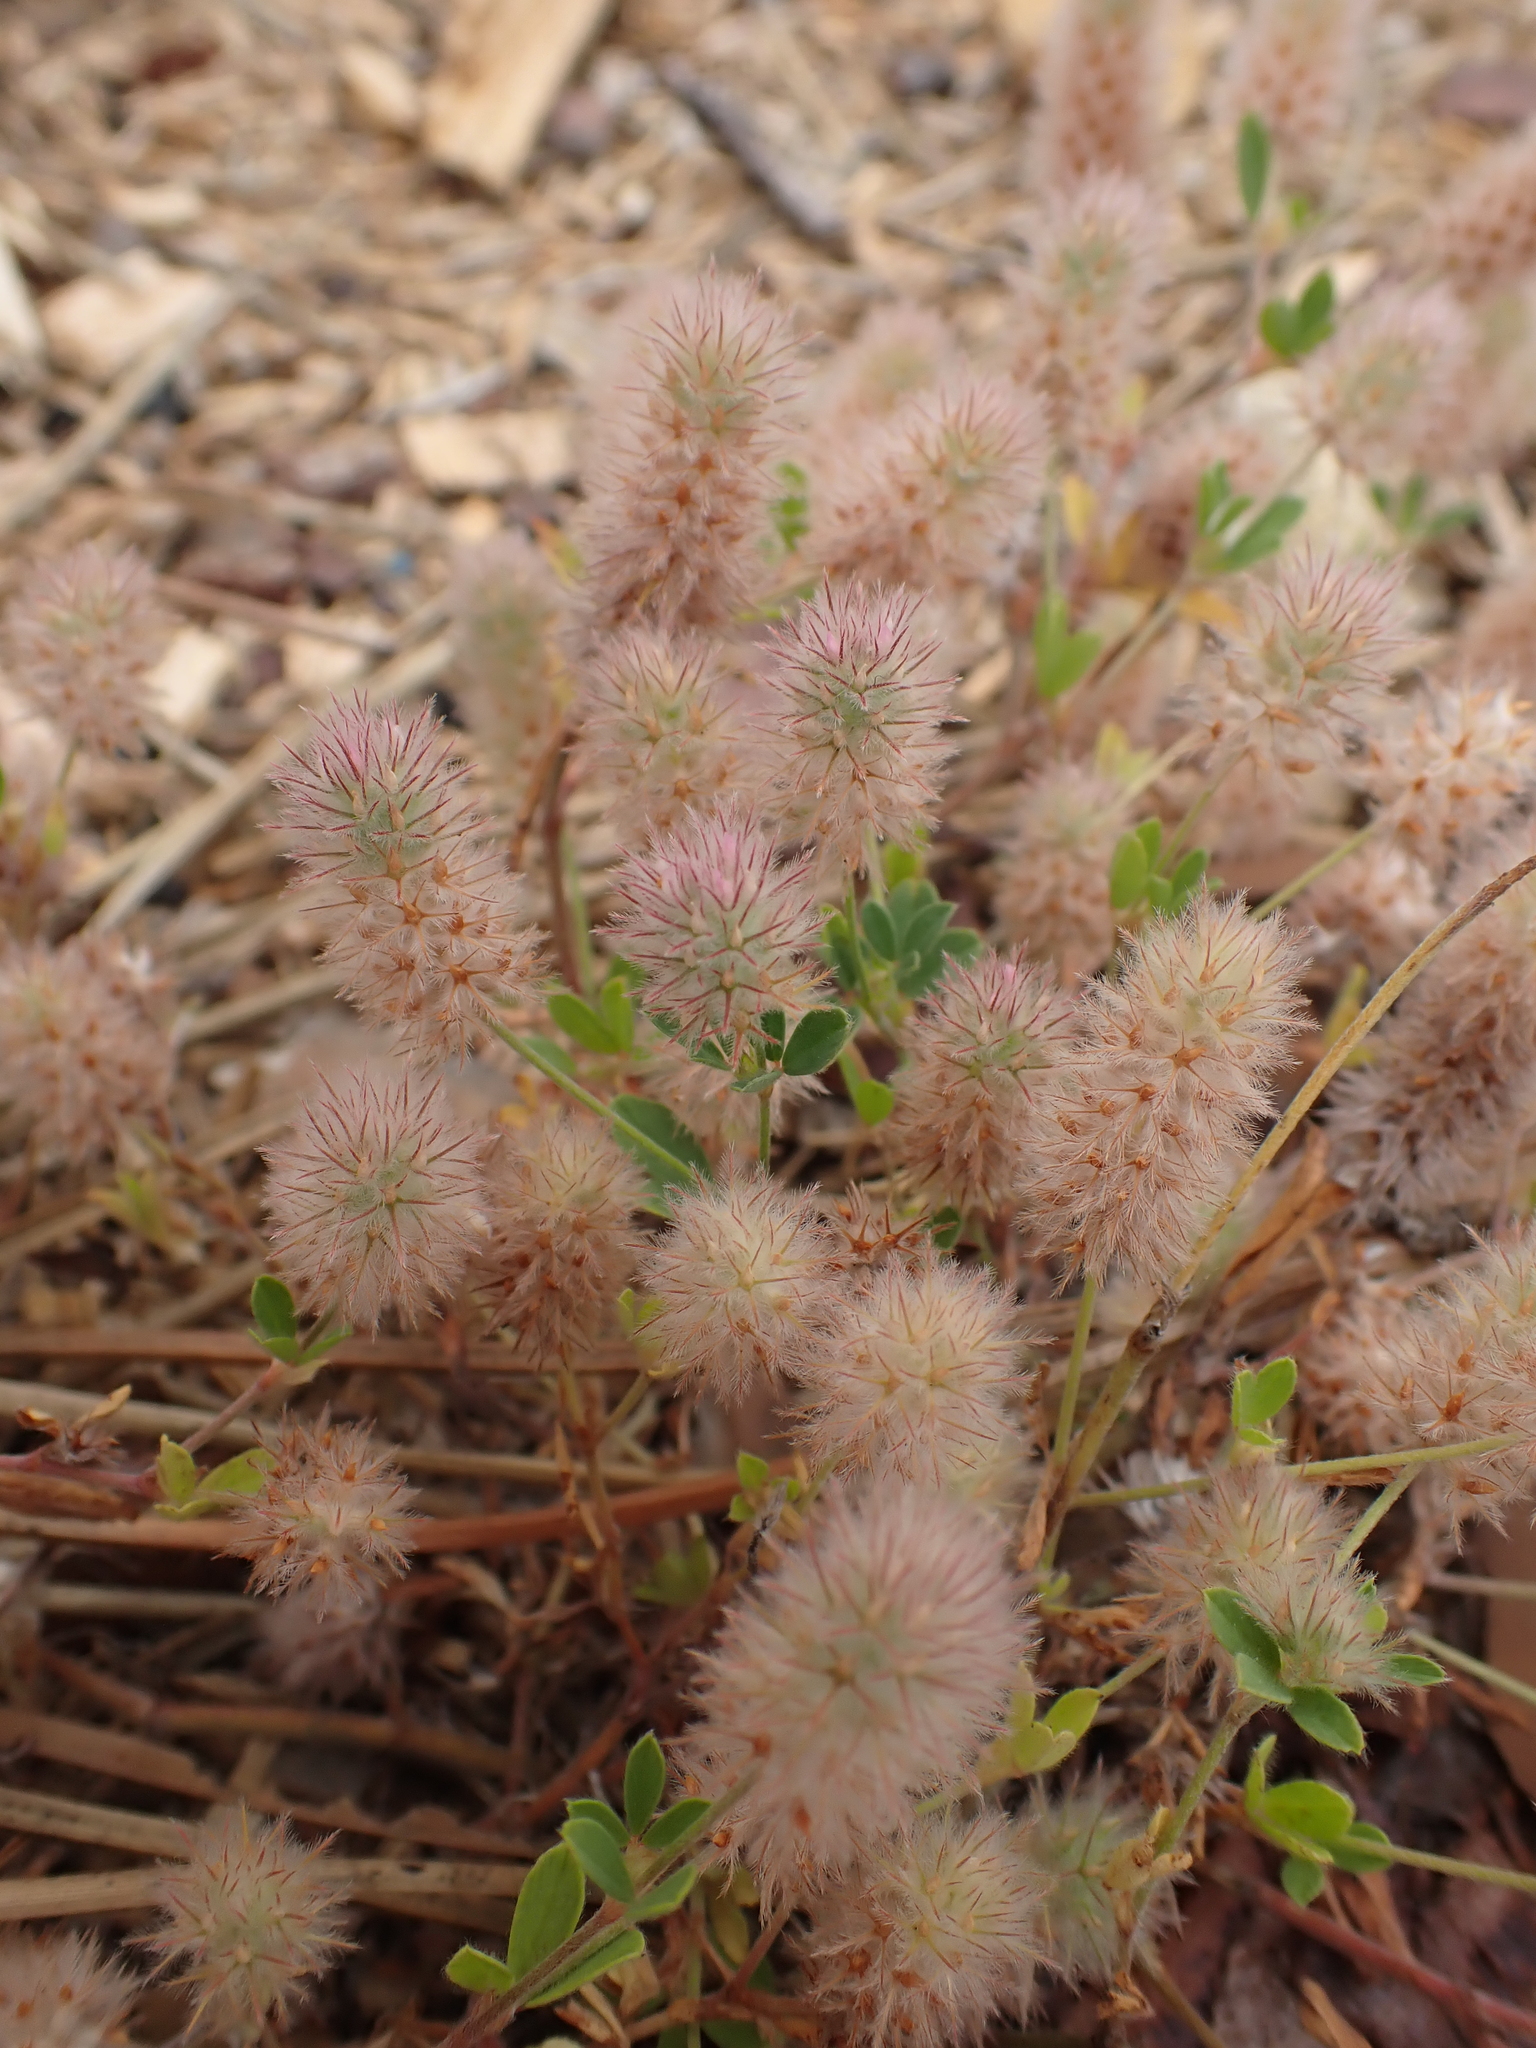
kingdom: Plantae
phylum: Tracheophyta
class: Magnoliopsida
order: Fabales
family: Fabaceae
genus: Trifolium
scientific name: Trifolium arvense
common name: Hare's-foot clover
